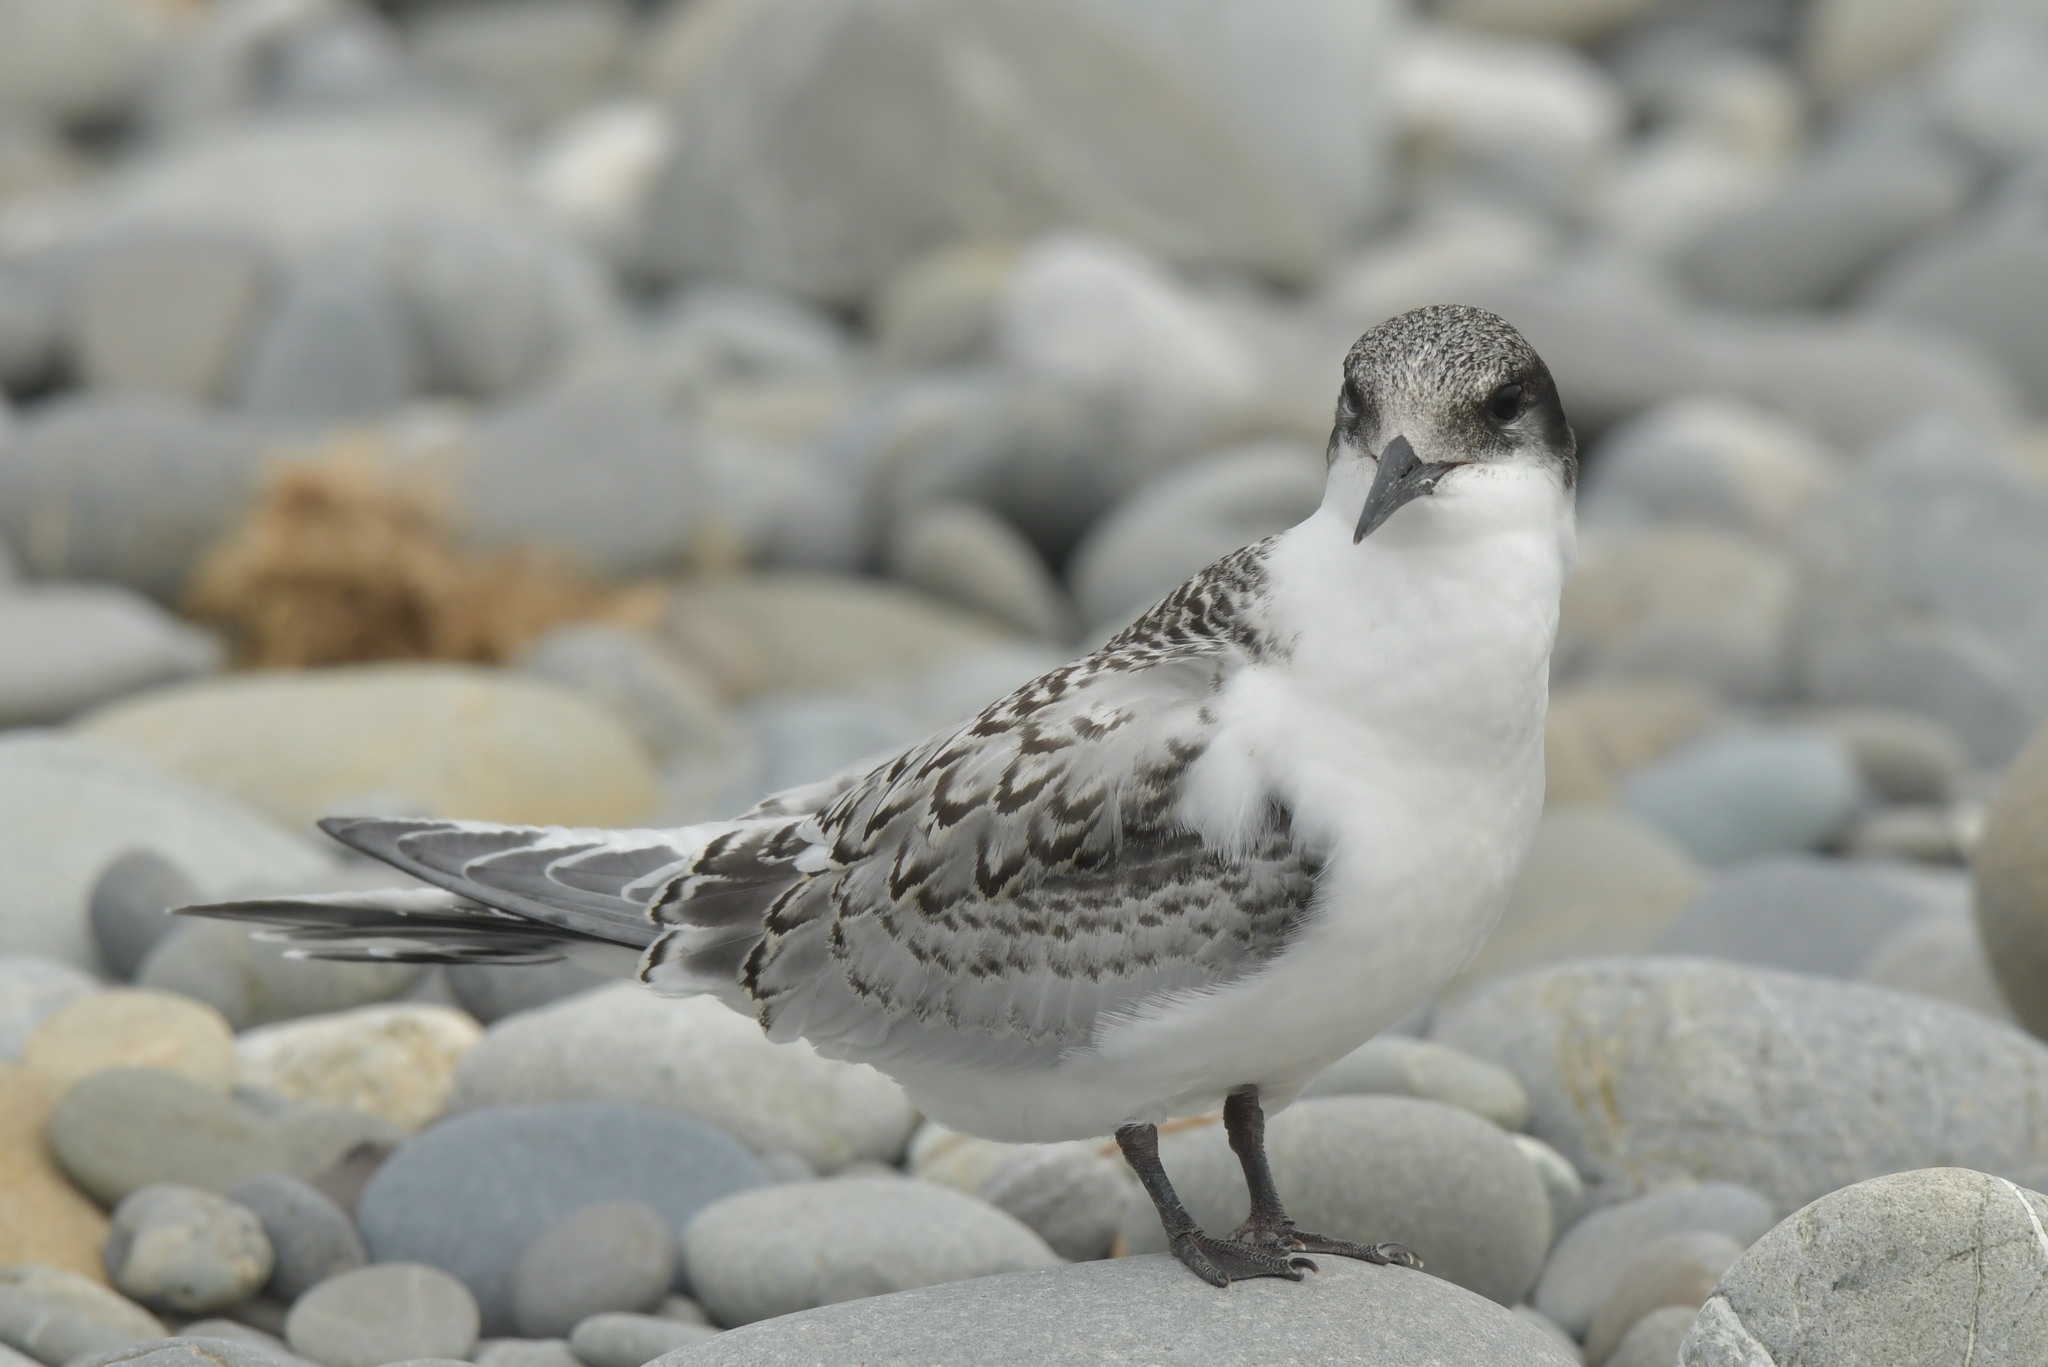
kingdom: Animalia
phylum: Chordata
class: Aves
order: Charadriiformes
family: Laridae
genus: Sterna
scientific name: Sterna striata
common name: White-fronted tern
